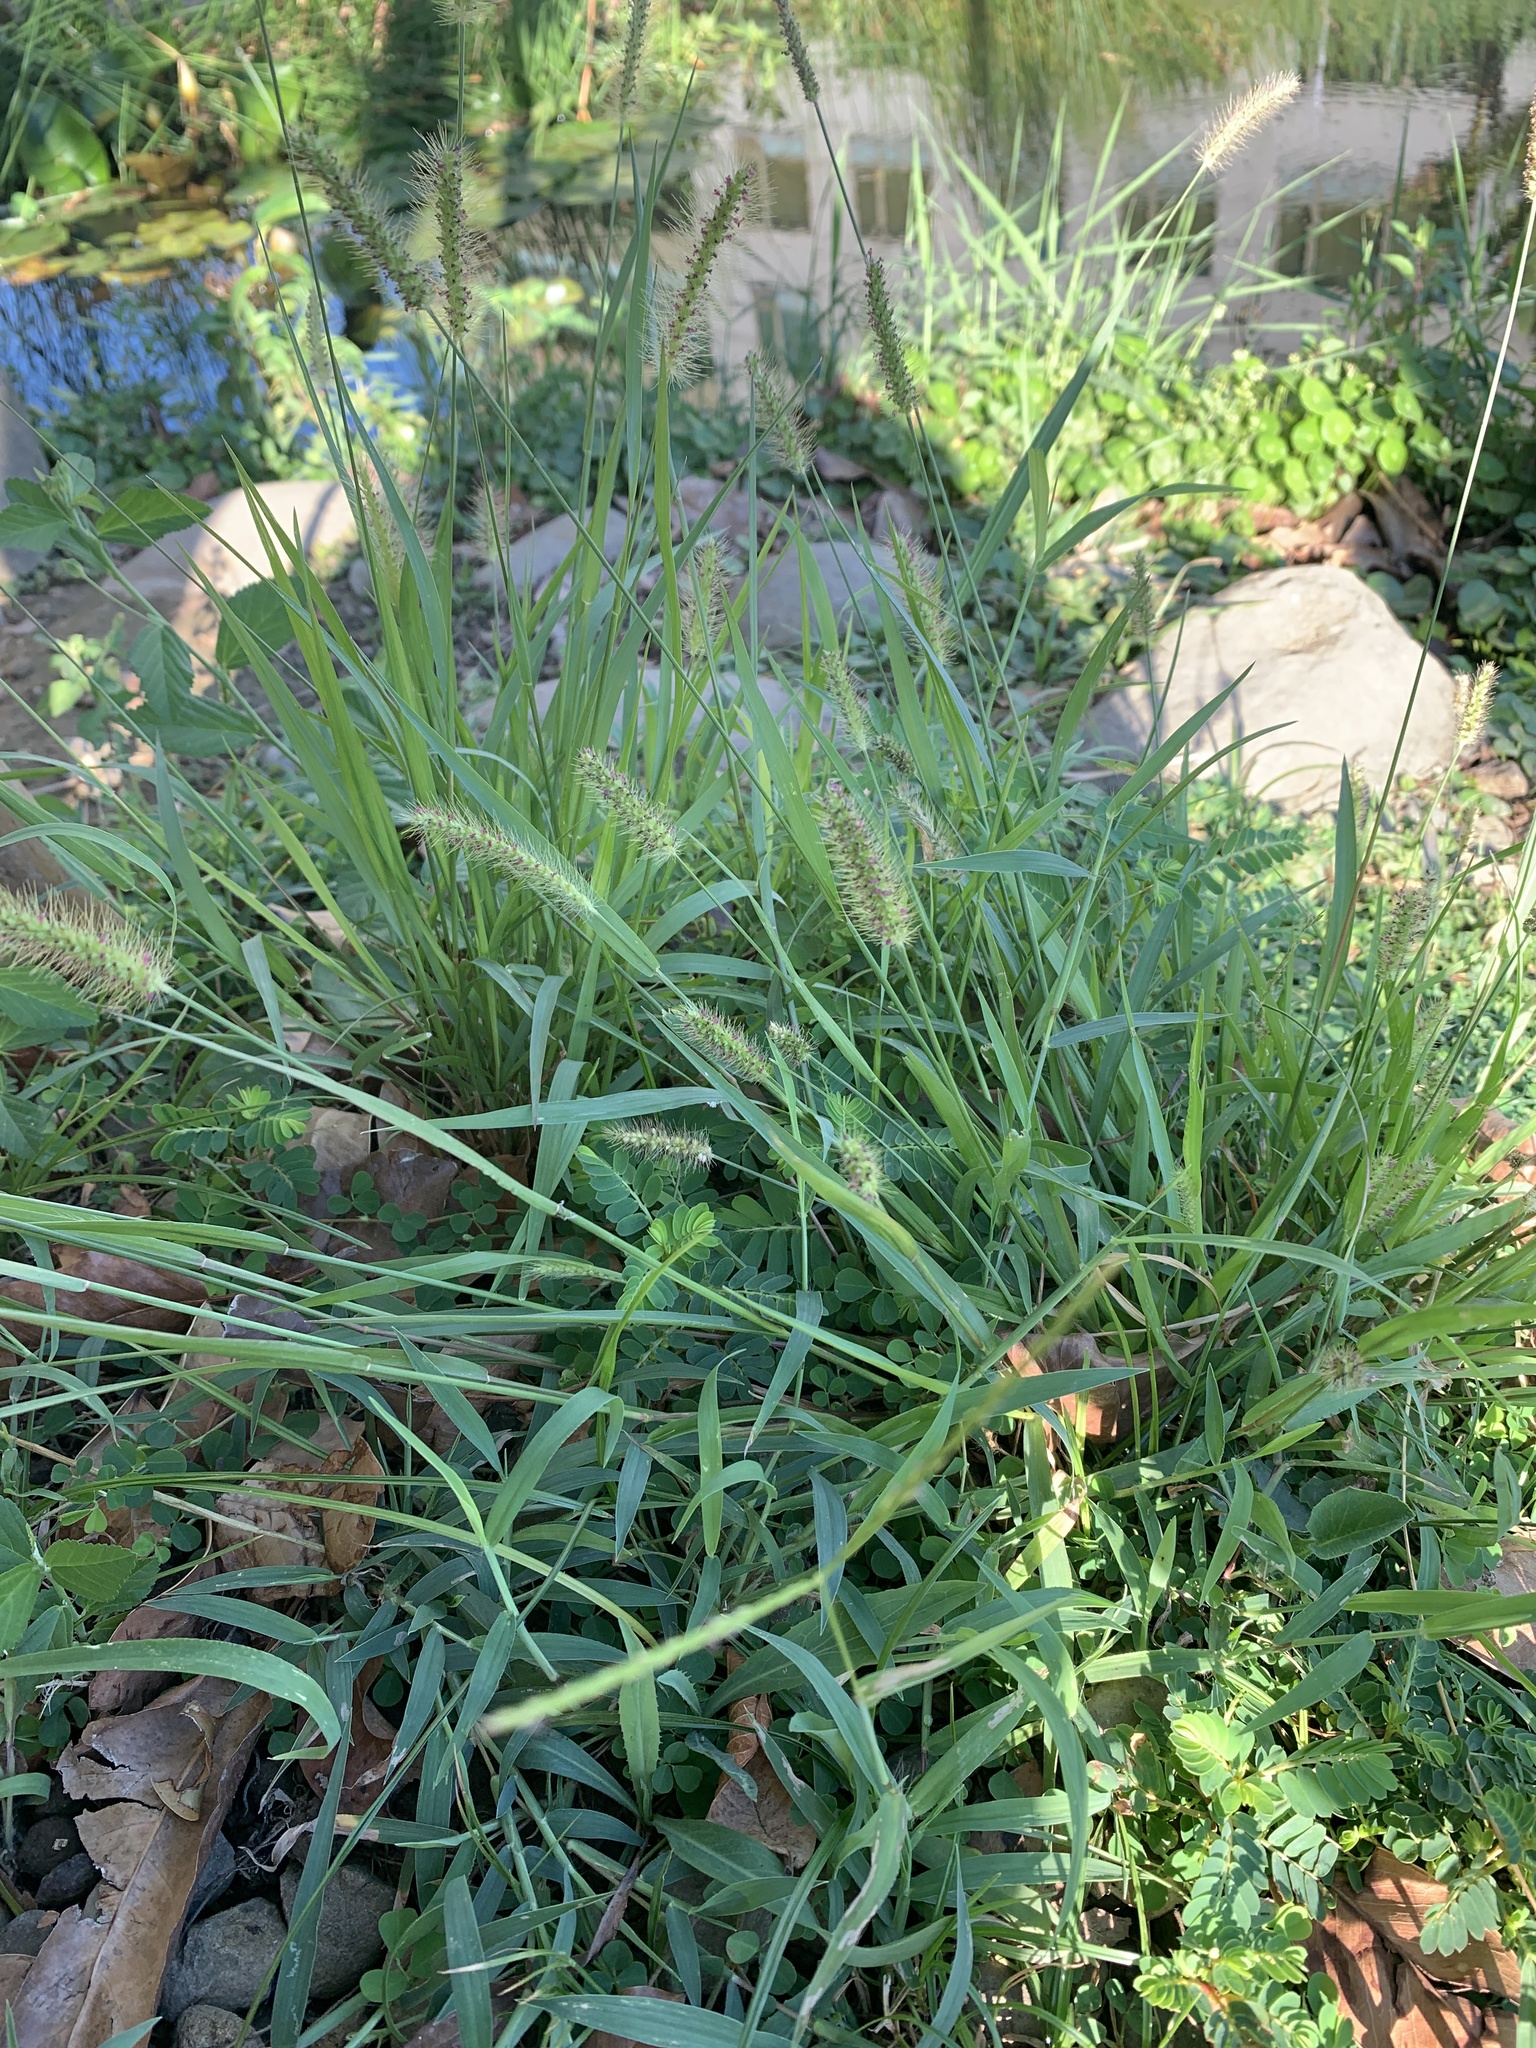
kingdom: Plantae
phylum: Tracheophyta
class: Liliopsida
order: Poales
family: Poaceae
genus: Setaria
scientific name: Setaria parviflora
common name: Knotroot bristle-grass
